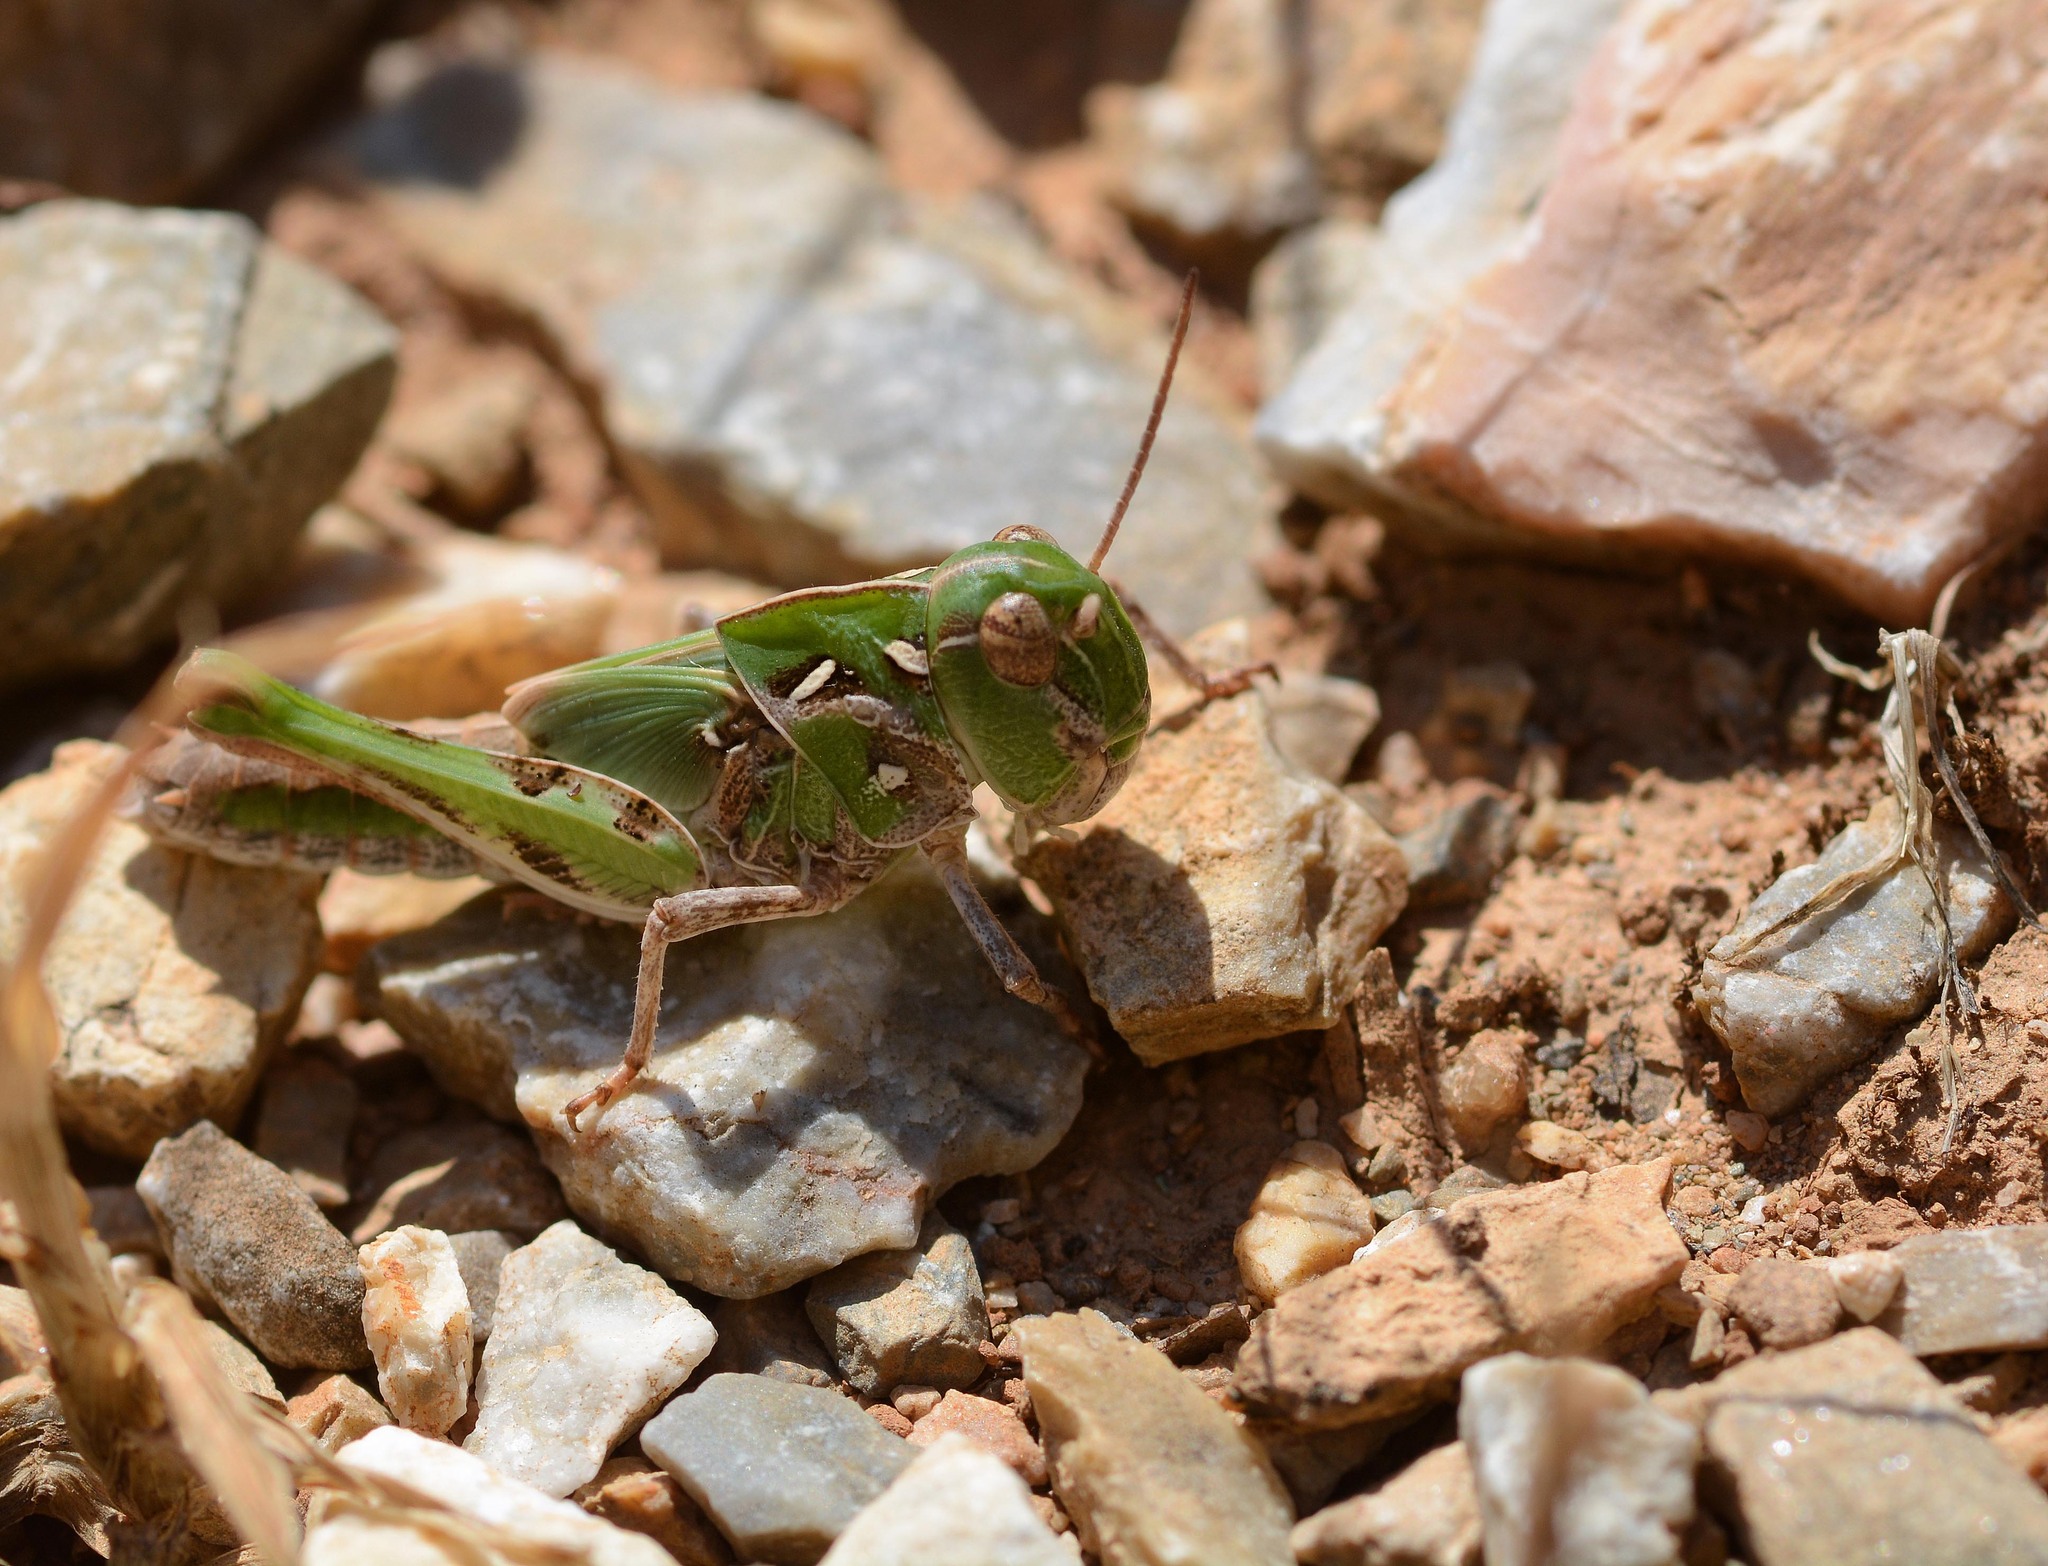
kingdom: Animalia
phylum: Arthropoda
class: Insecta
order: Orthoptera
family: Acrididae
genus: Oedaleus
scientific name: Oedaleus decorus
